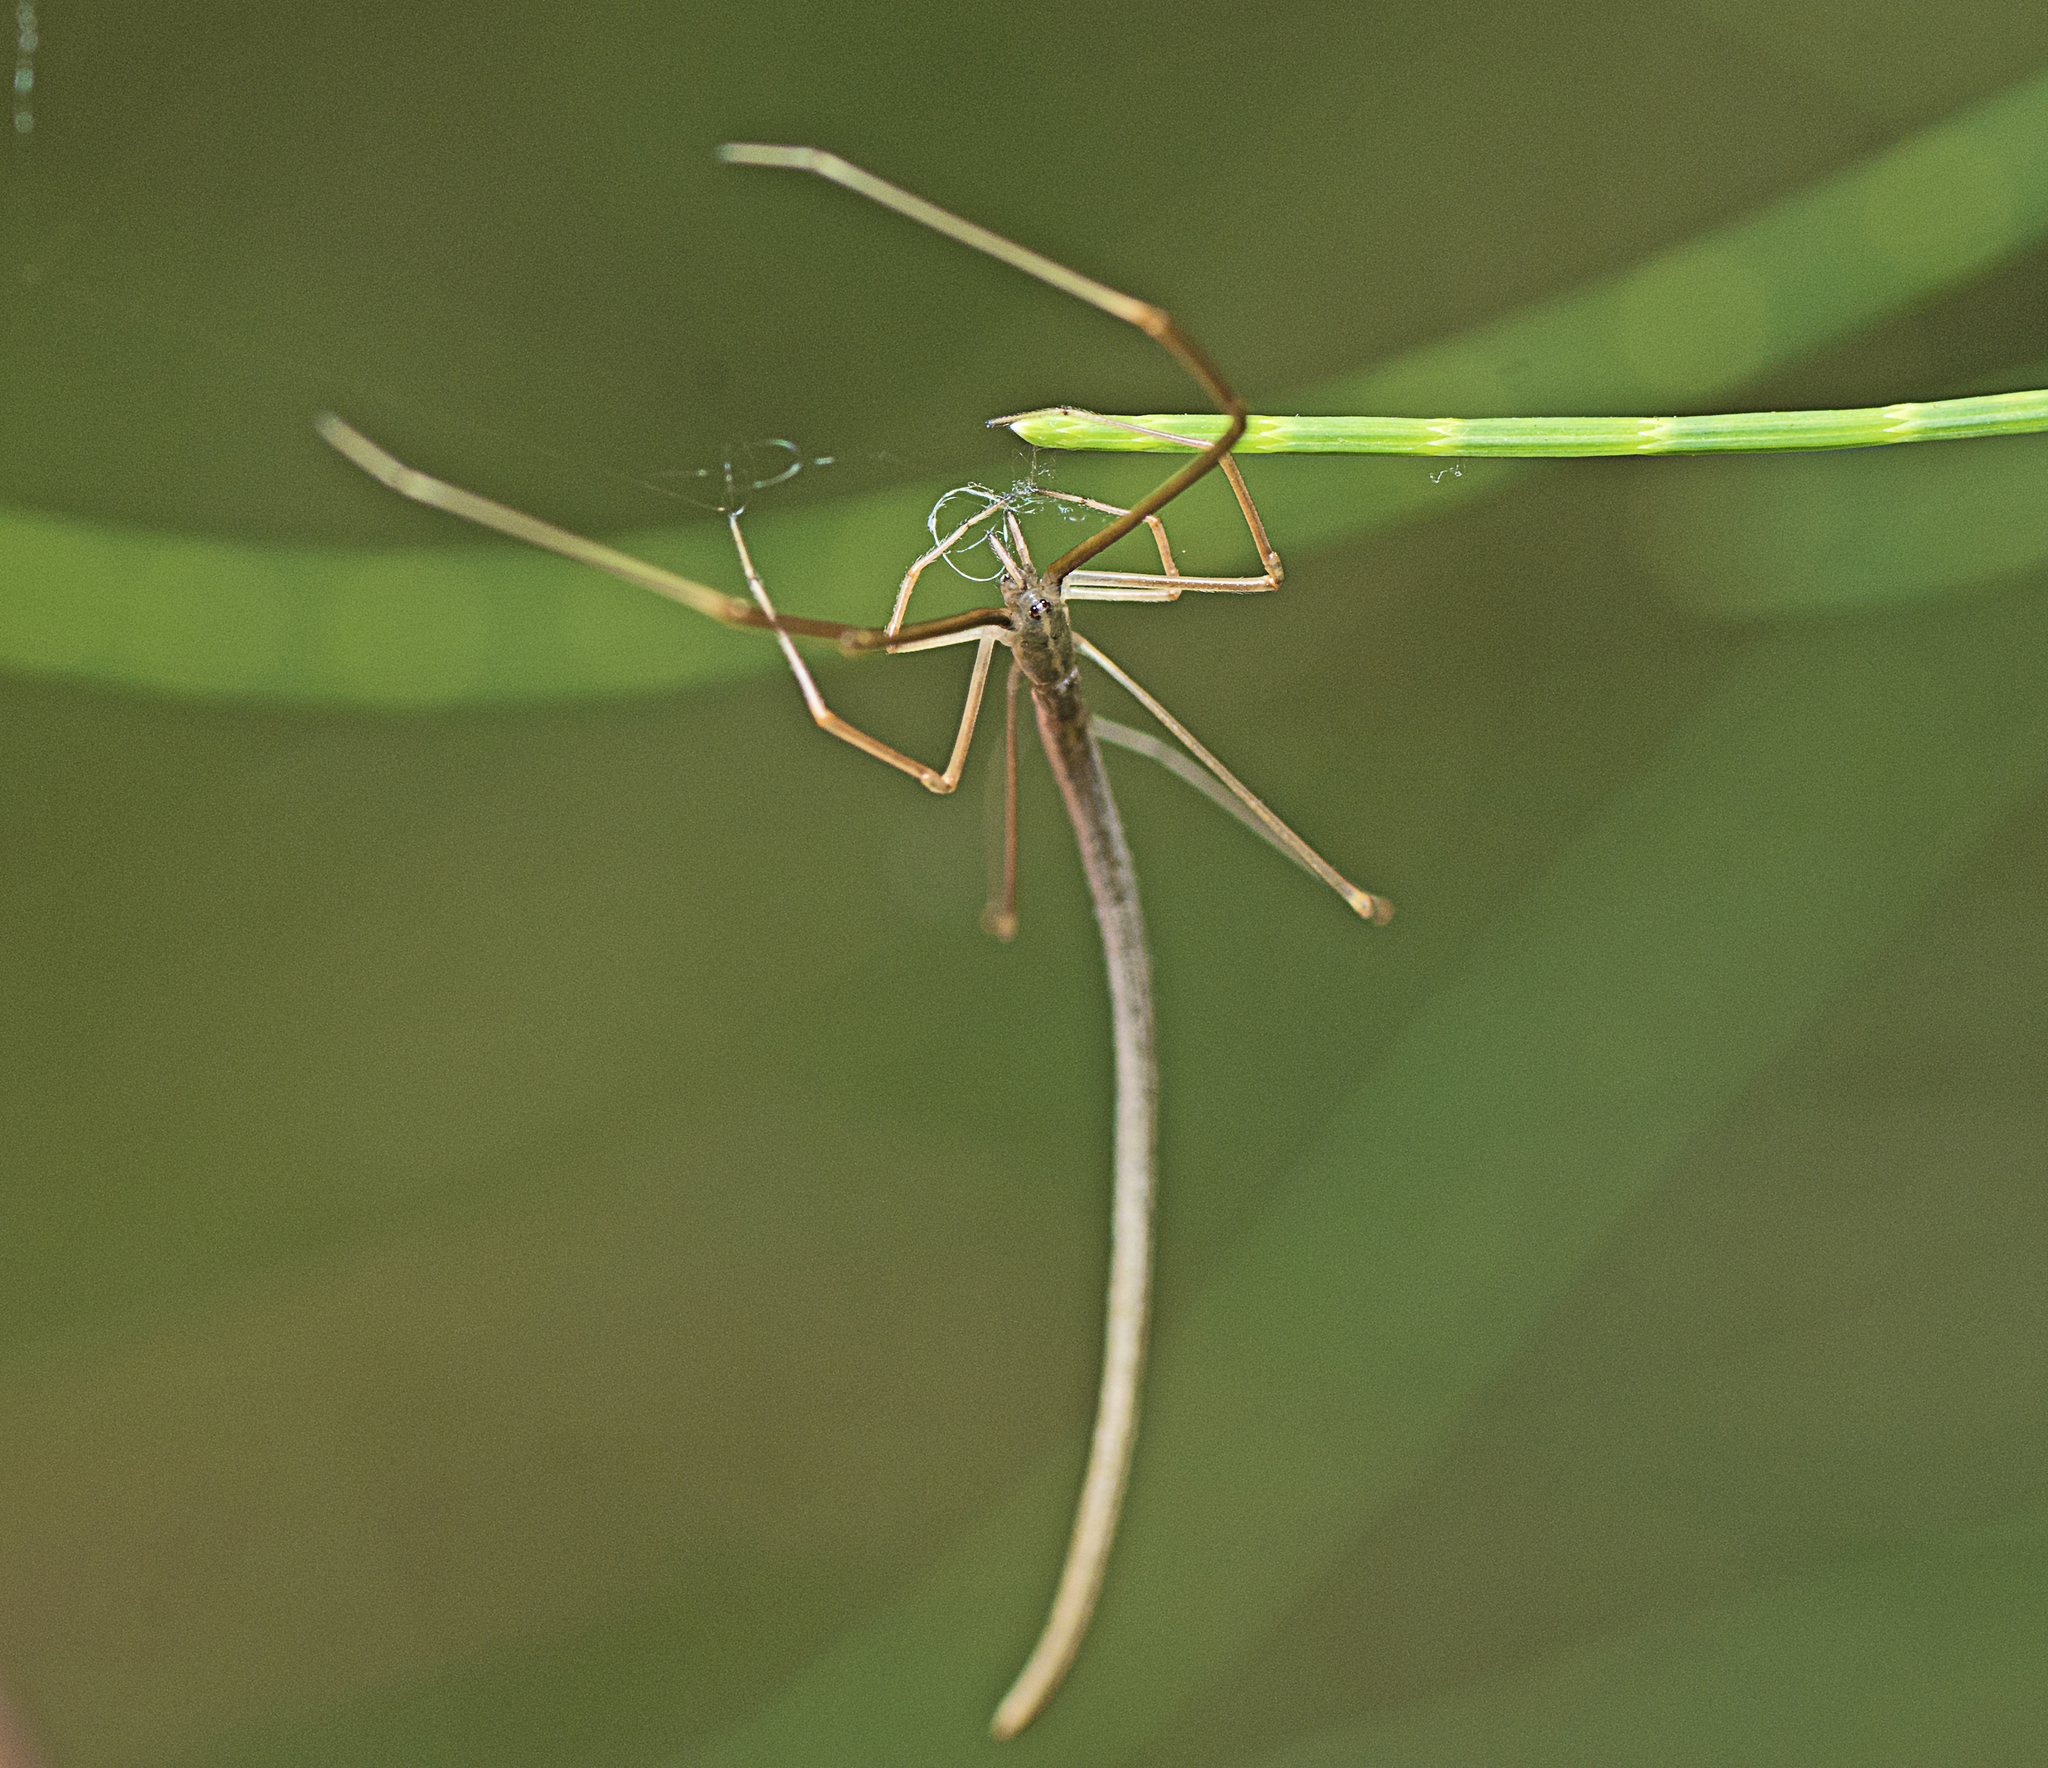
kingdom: Animalia
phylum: Arthropoda
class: Arachnida
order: Araneae
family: Theridiidae
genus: Ariamnes
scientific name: Ariamnes colubrinus
